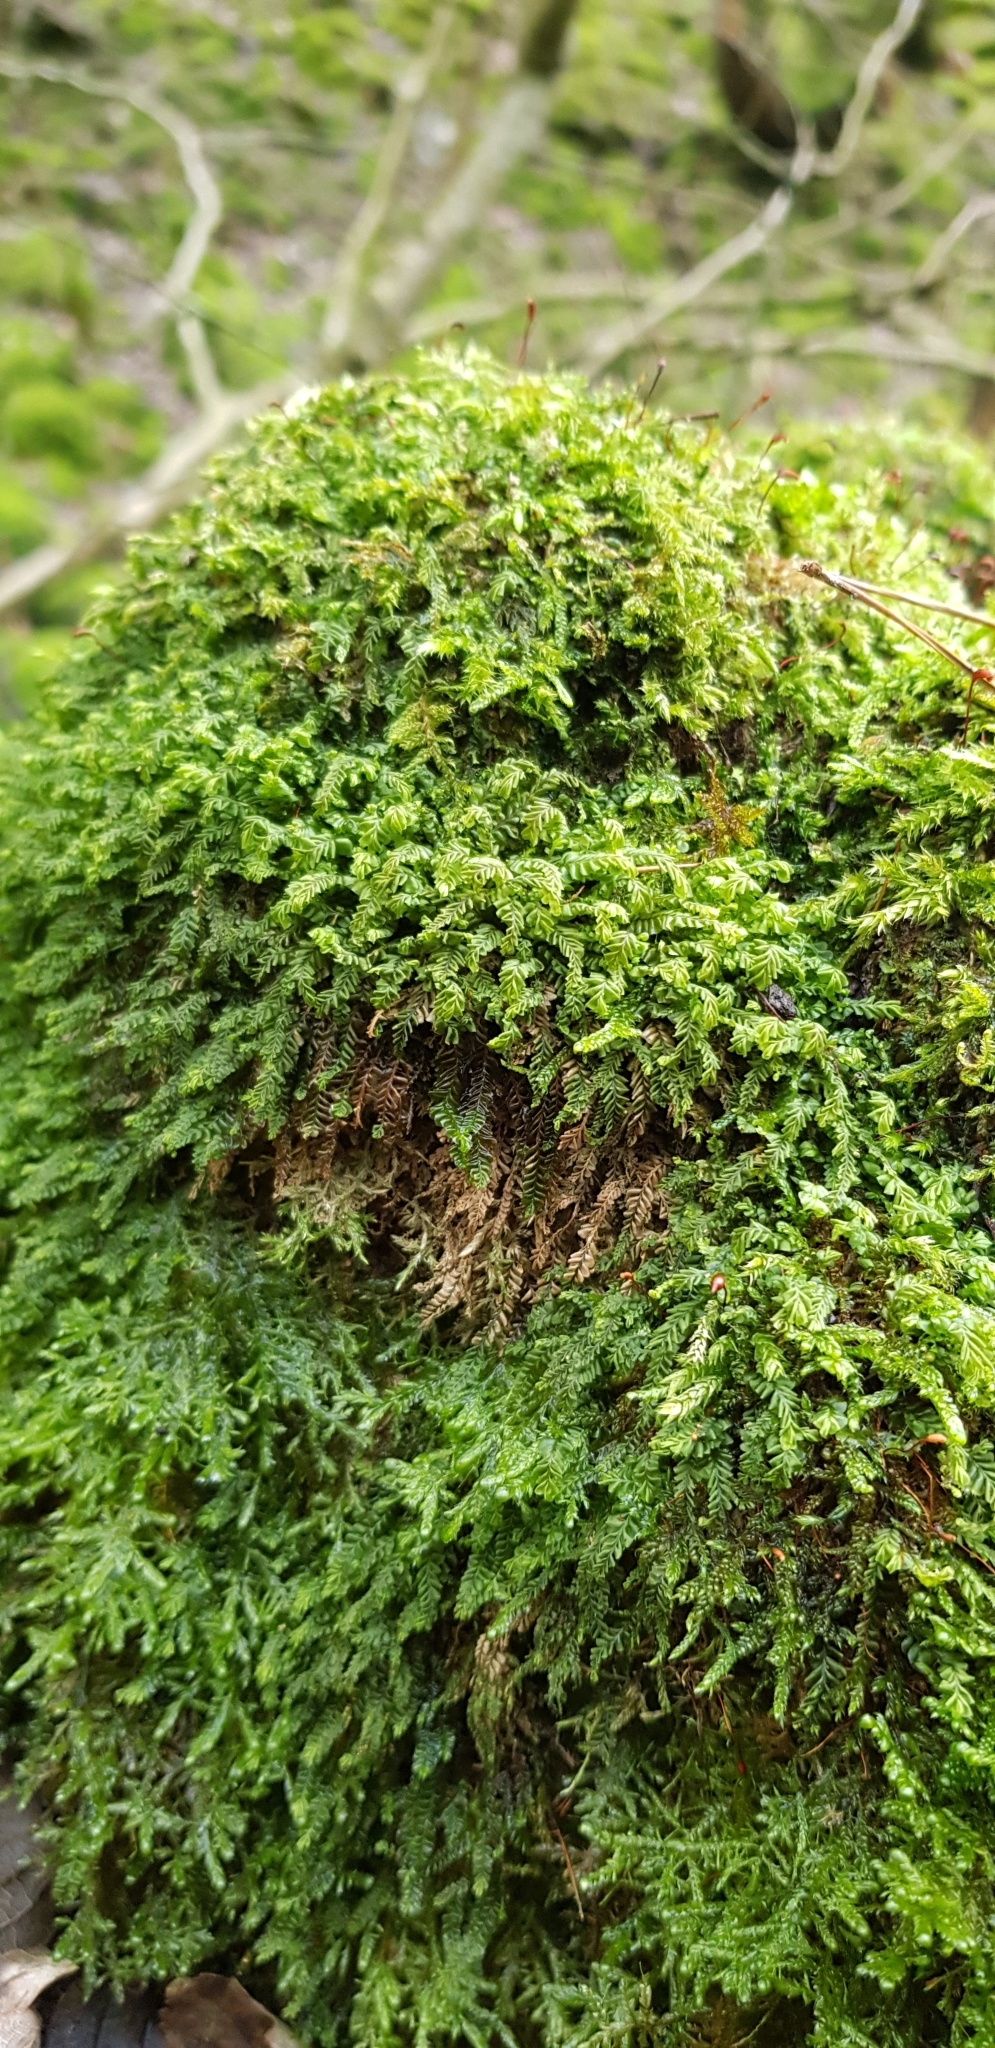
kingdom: Plantae
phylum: Marchantiophyta
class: Jungermanniopsida
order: Jungermanniales
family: Plagiochilaceae
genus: Plagiochila
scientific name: Plagiochila porelloides
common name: Lesser featherwort
